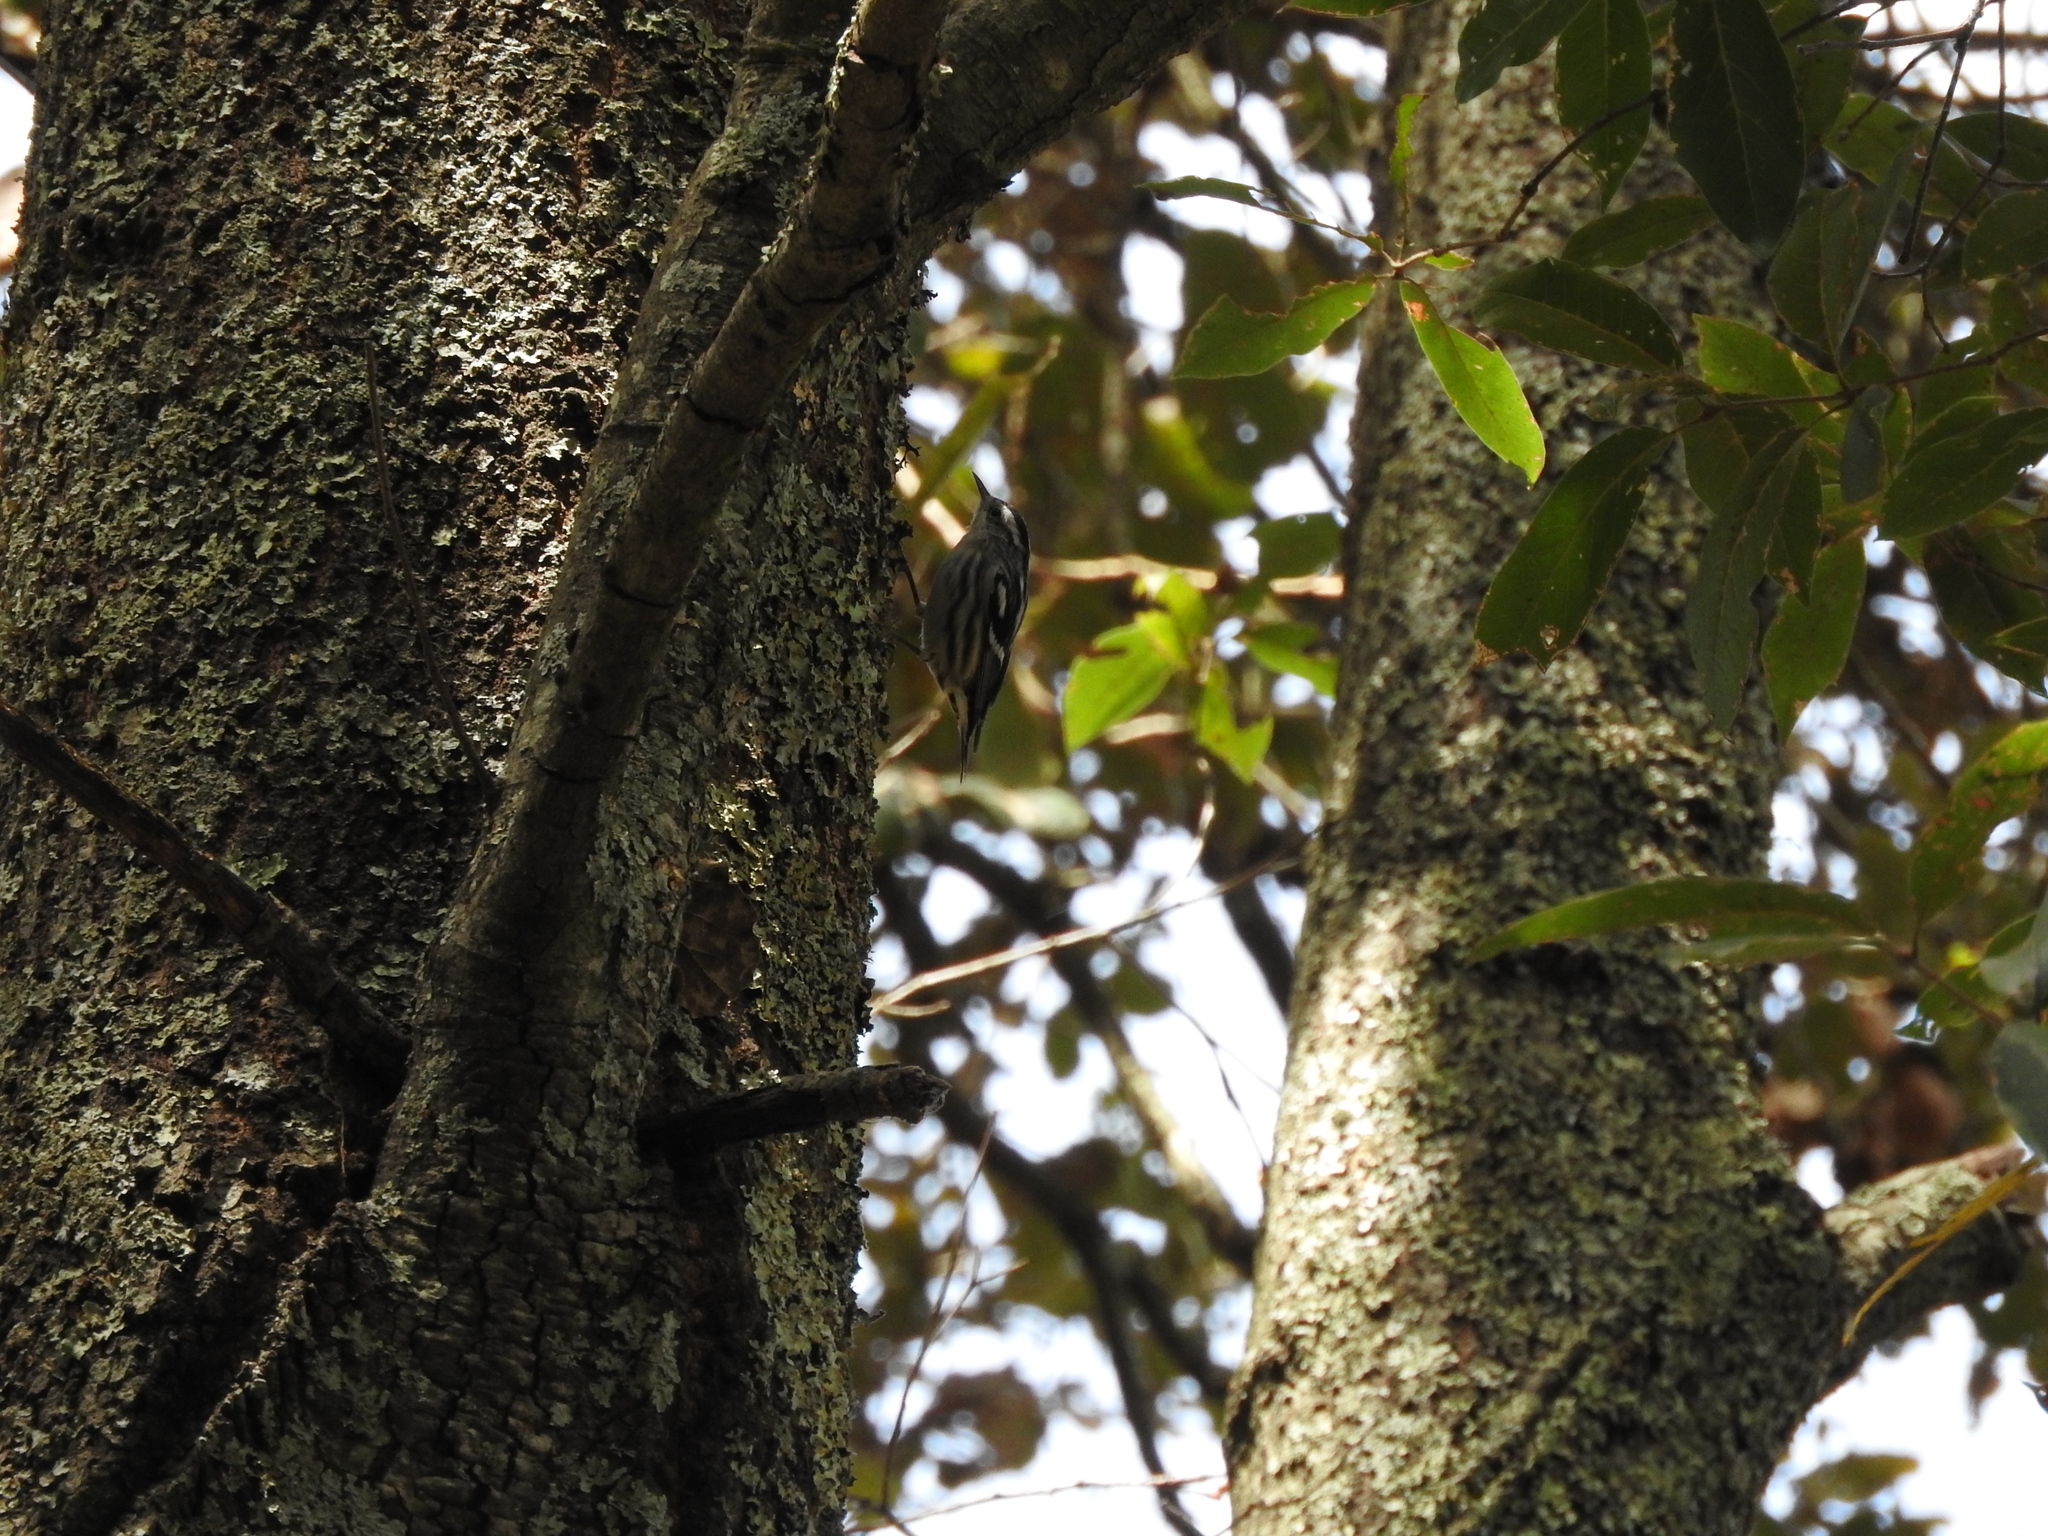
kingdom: Animalia
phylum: Chordata
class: Aves
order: Passeriformes
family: Parulidae
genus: Mniotilta
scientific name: Mniotilta varia
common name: Black-and-white warbler
